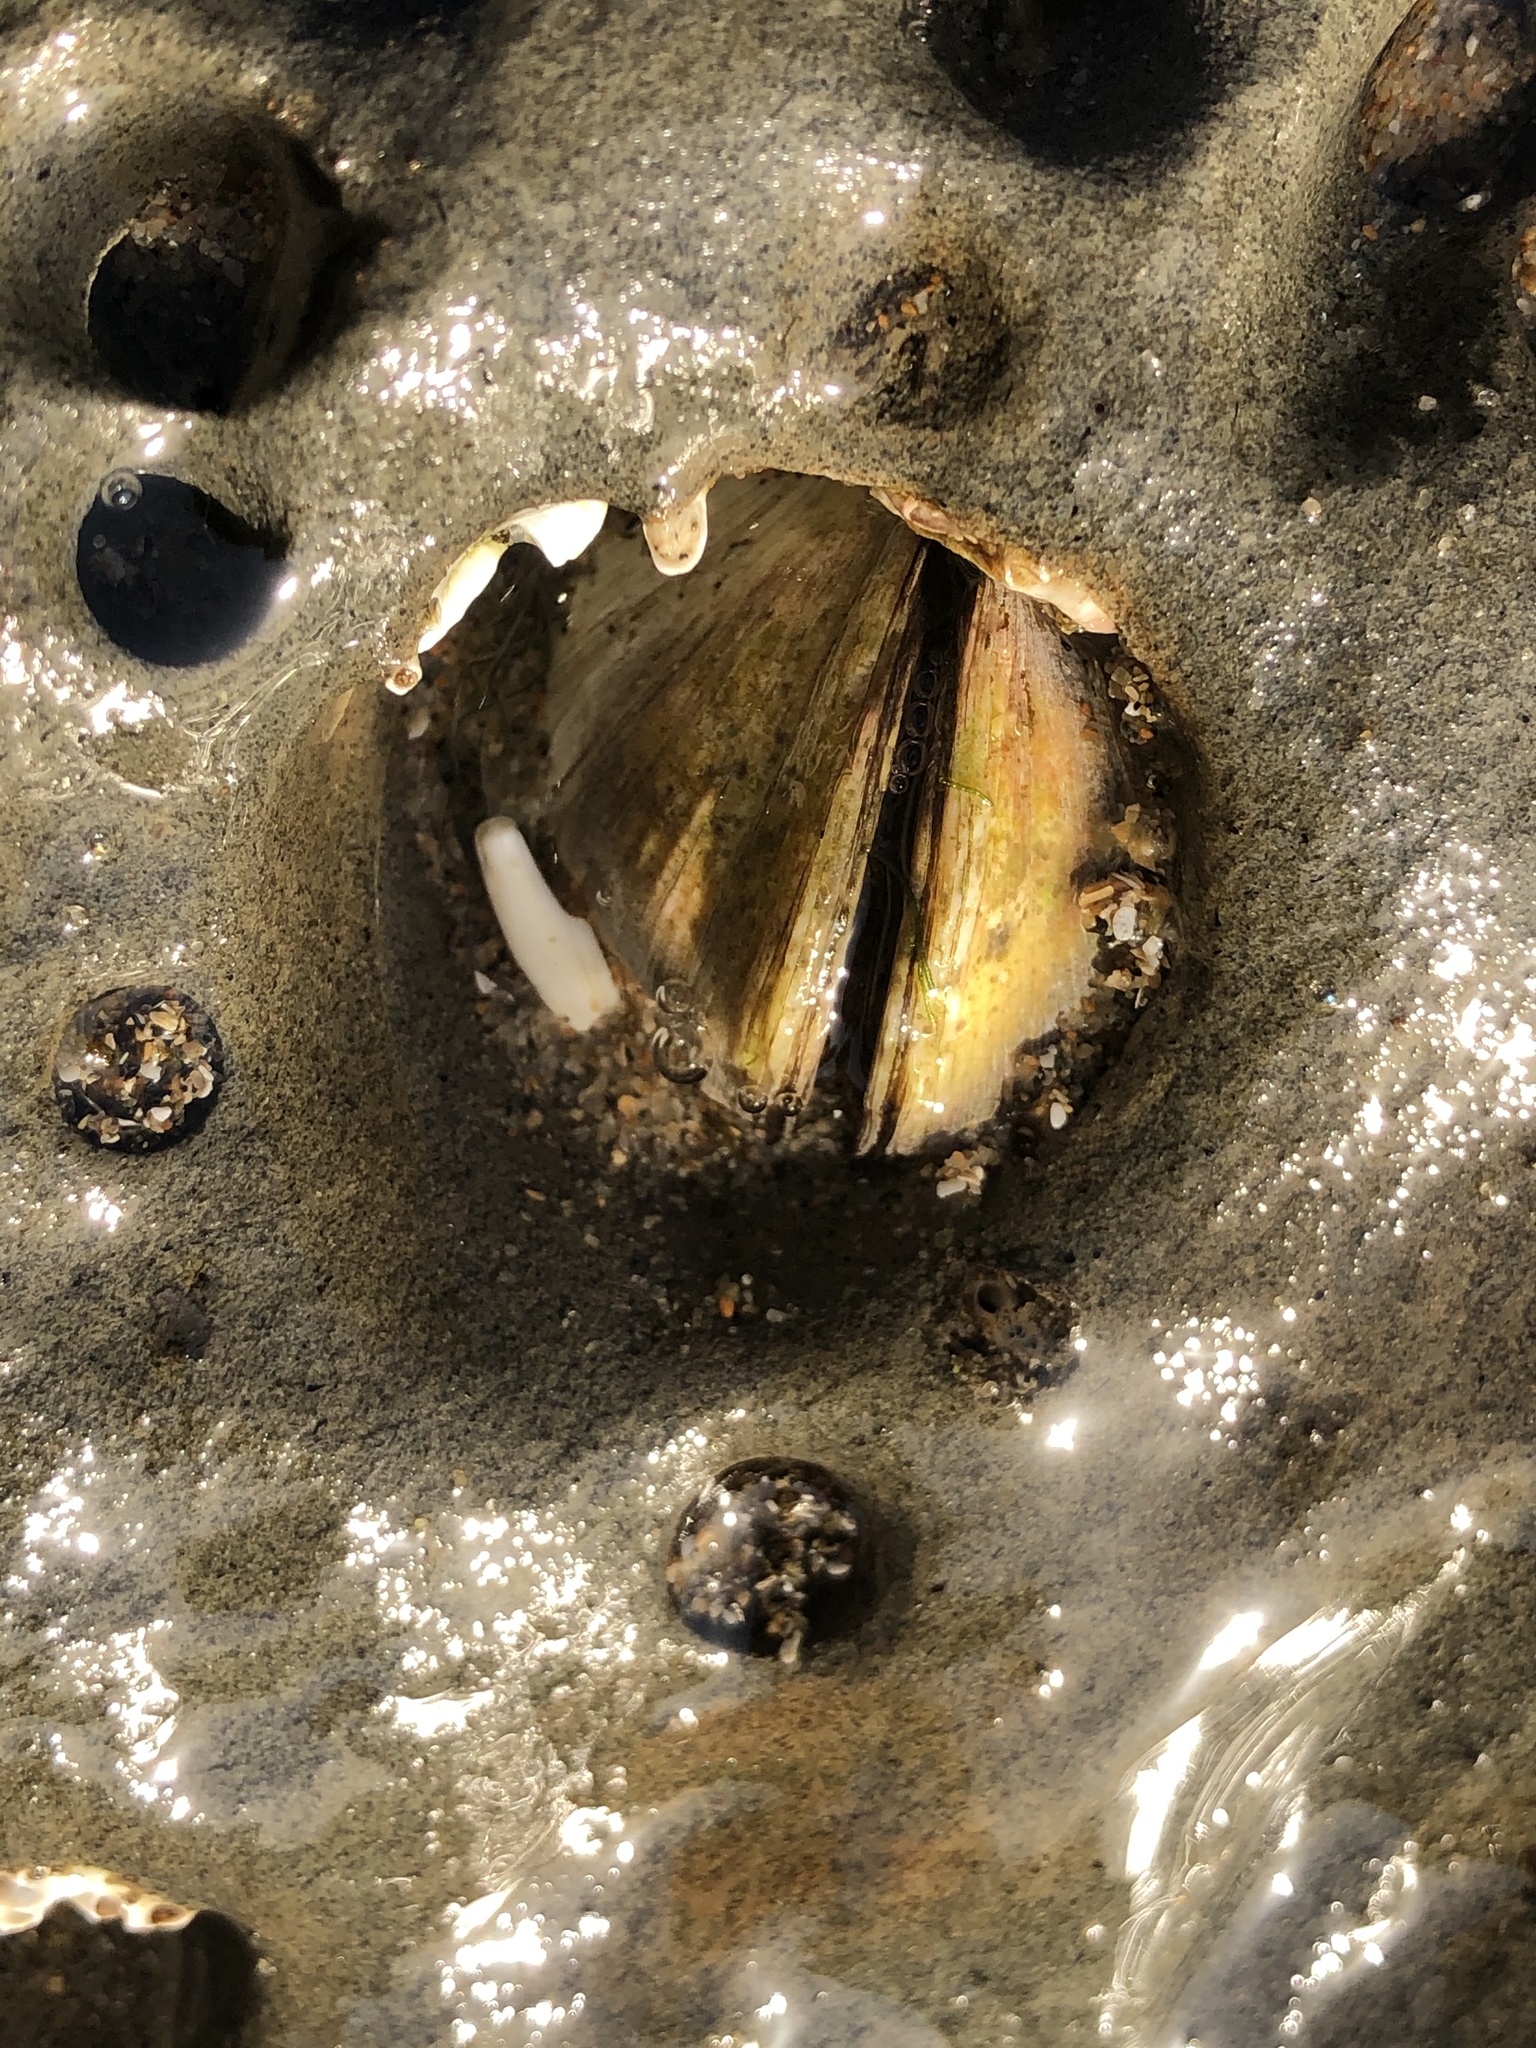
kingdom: Animalia
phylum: Mollusca
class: Bivalvia
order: Venerida
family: Veneridae
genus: Petricola
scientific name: Petricola carditoides
